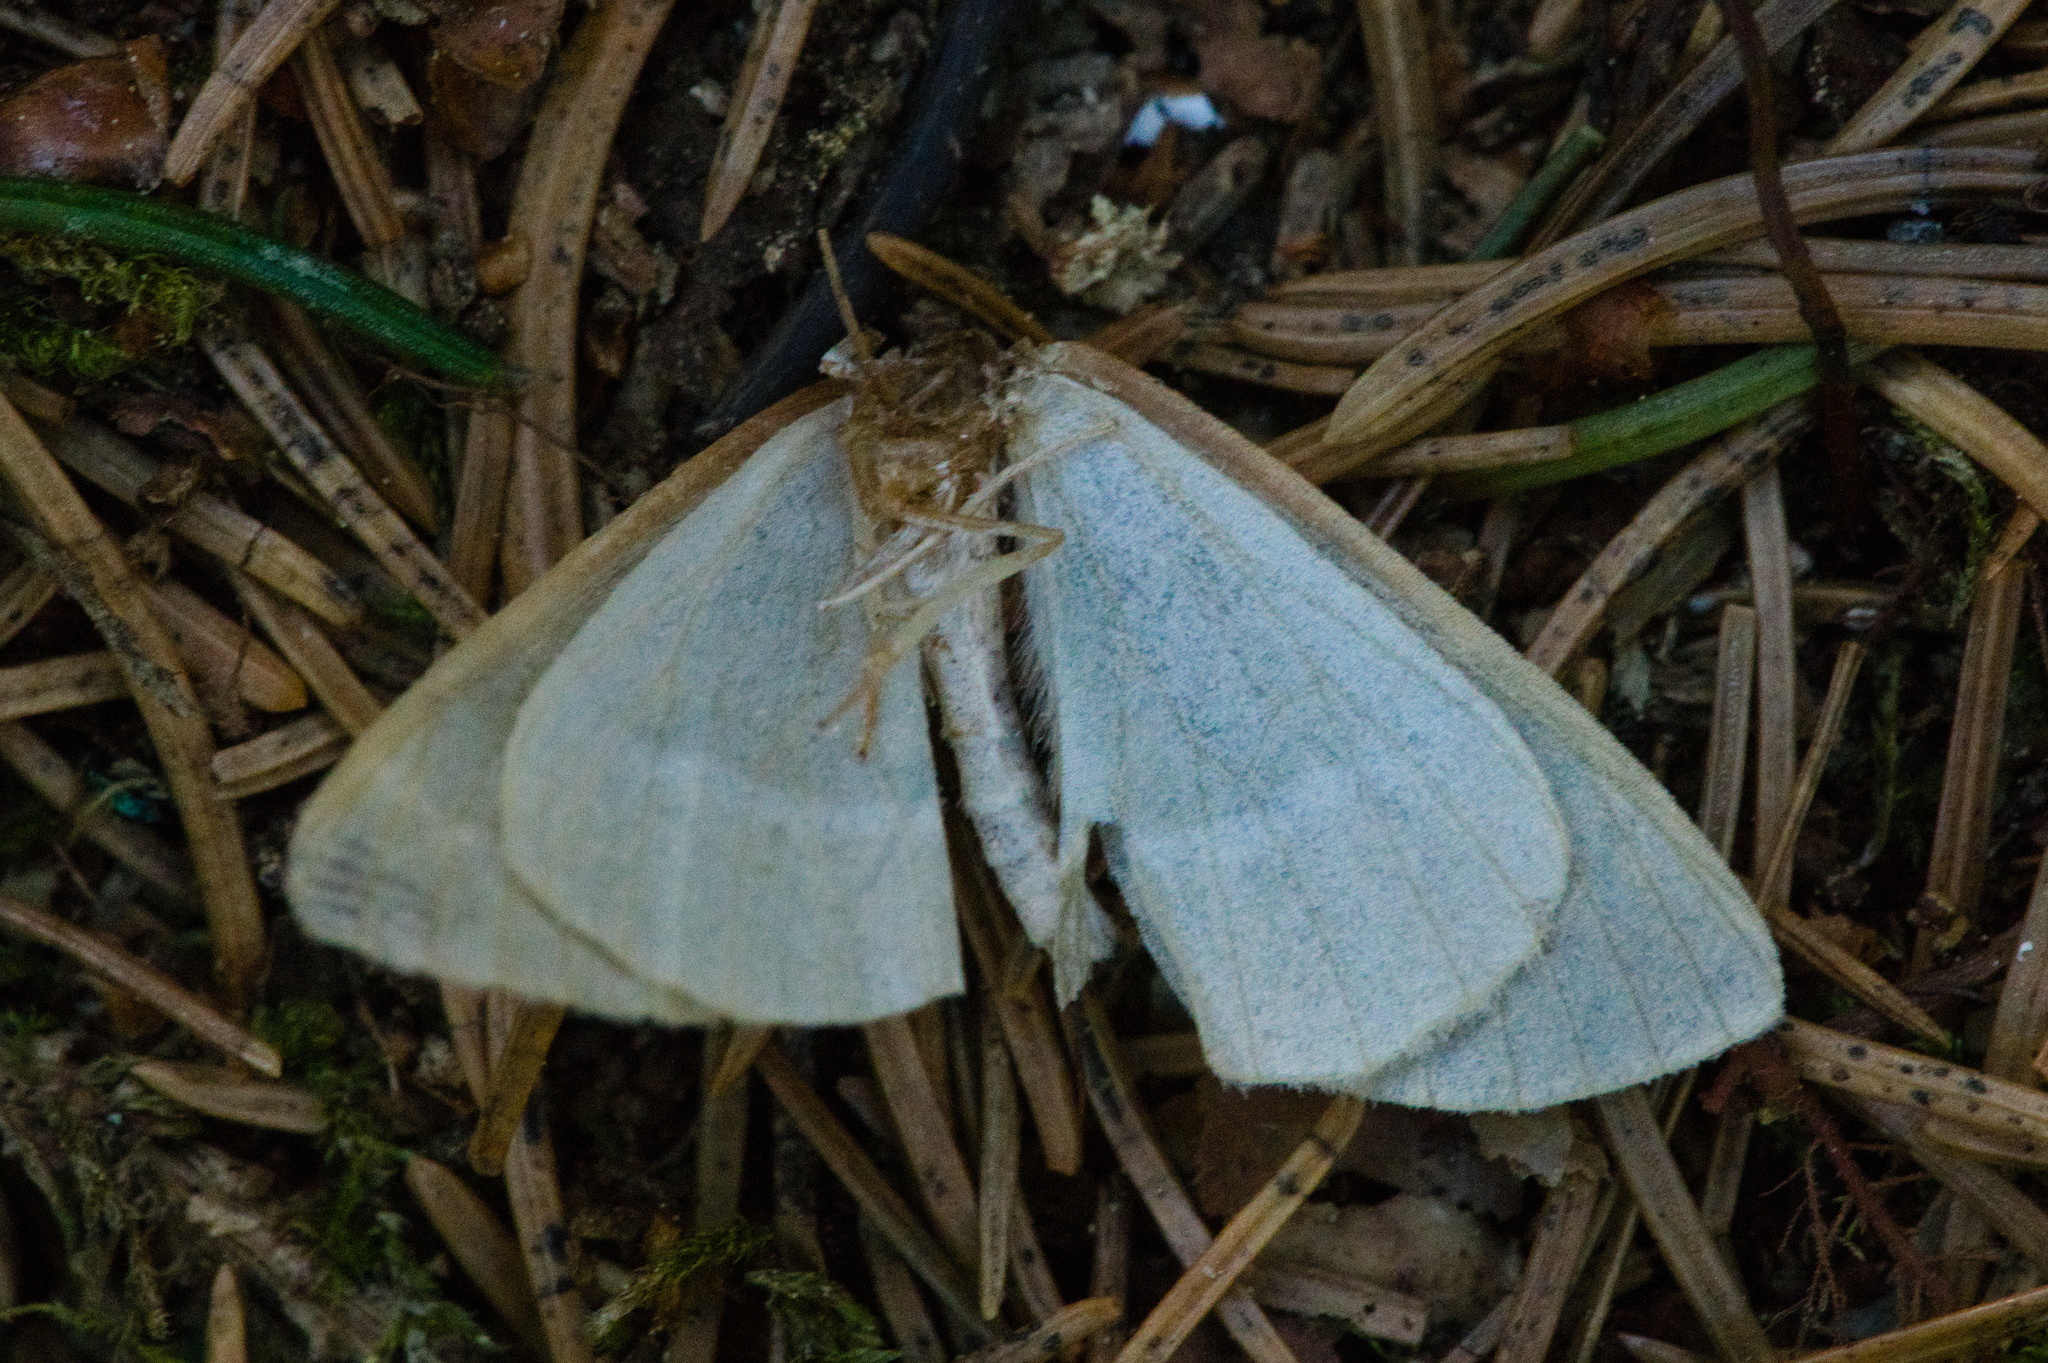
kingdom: Animalia
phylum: Arthropoda
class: Insecta
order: Lepidoptera
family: Geometridae
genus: Hylaea
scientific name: Hylaea fasciaria
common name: Barred red
